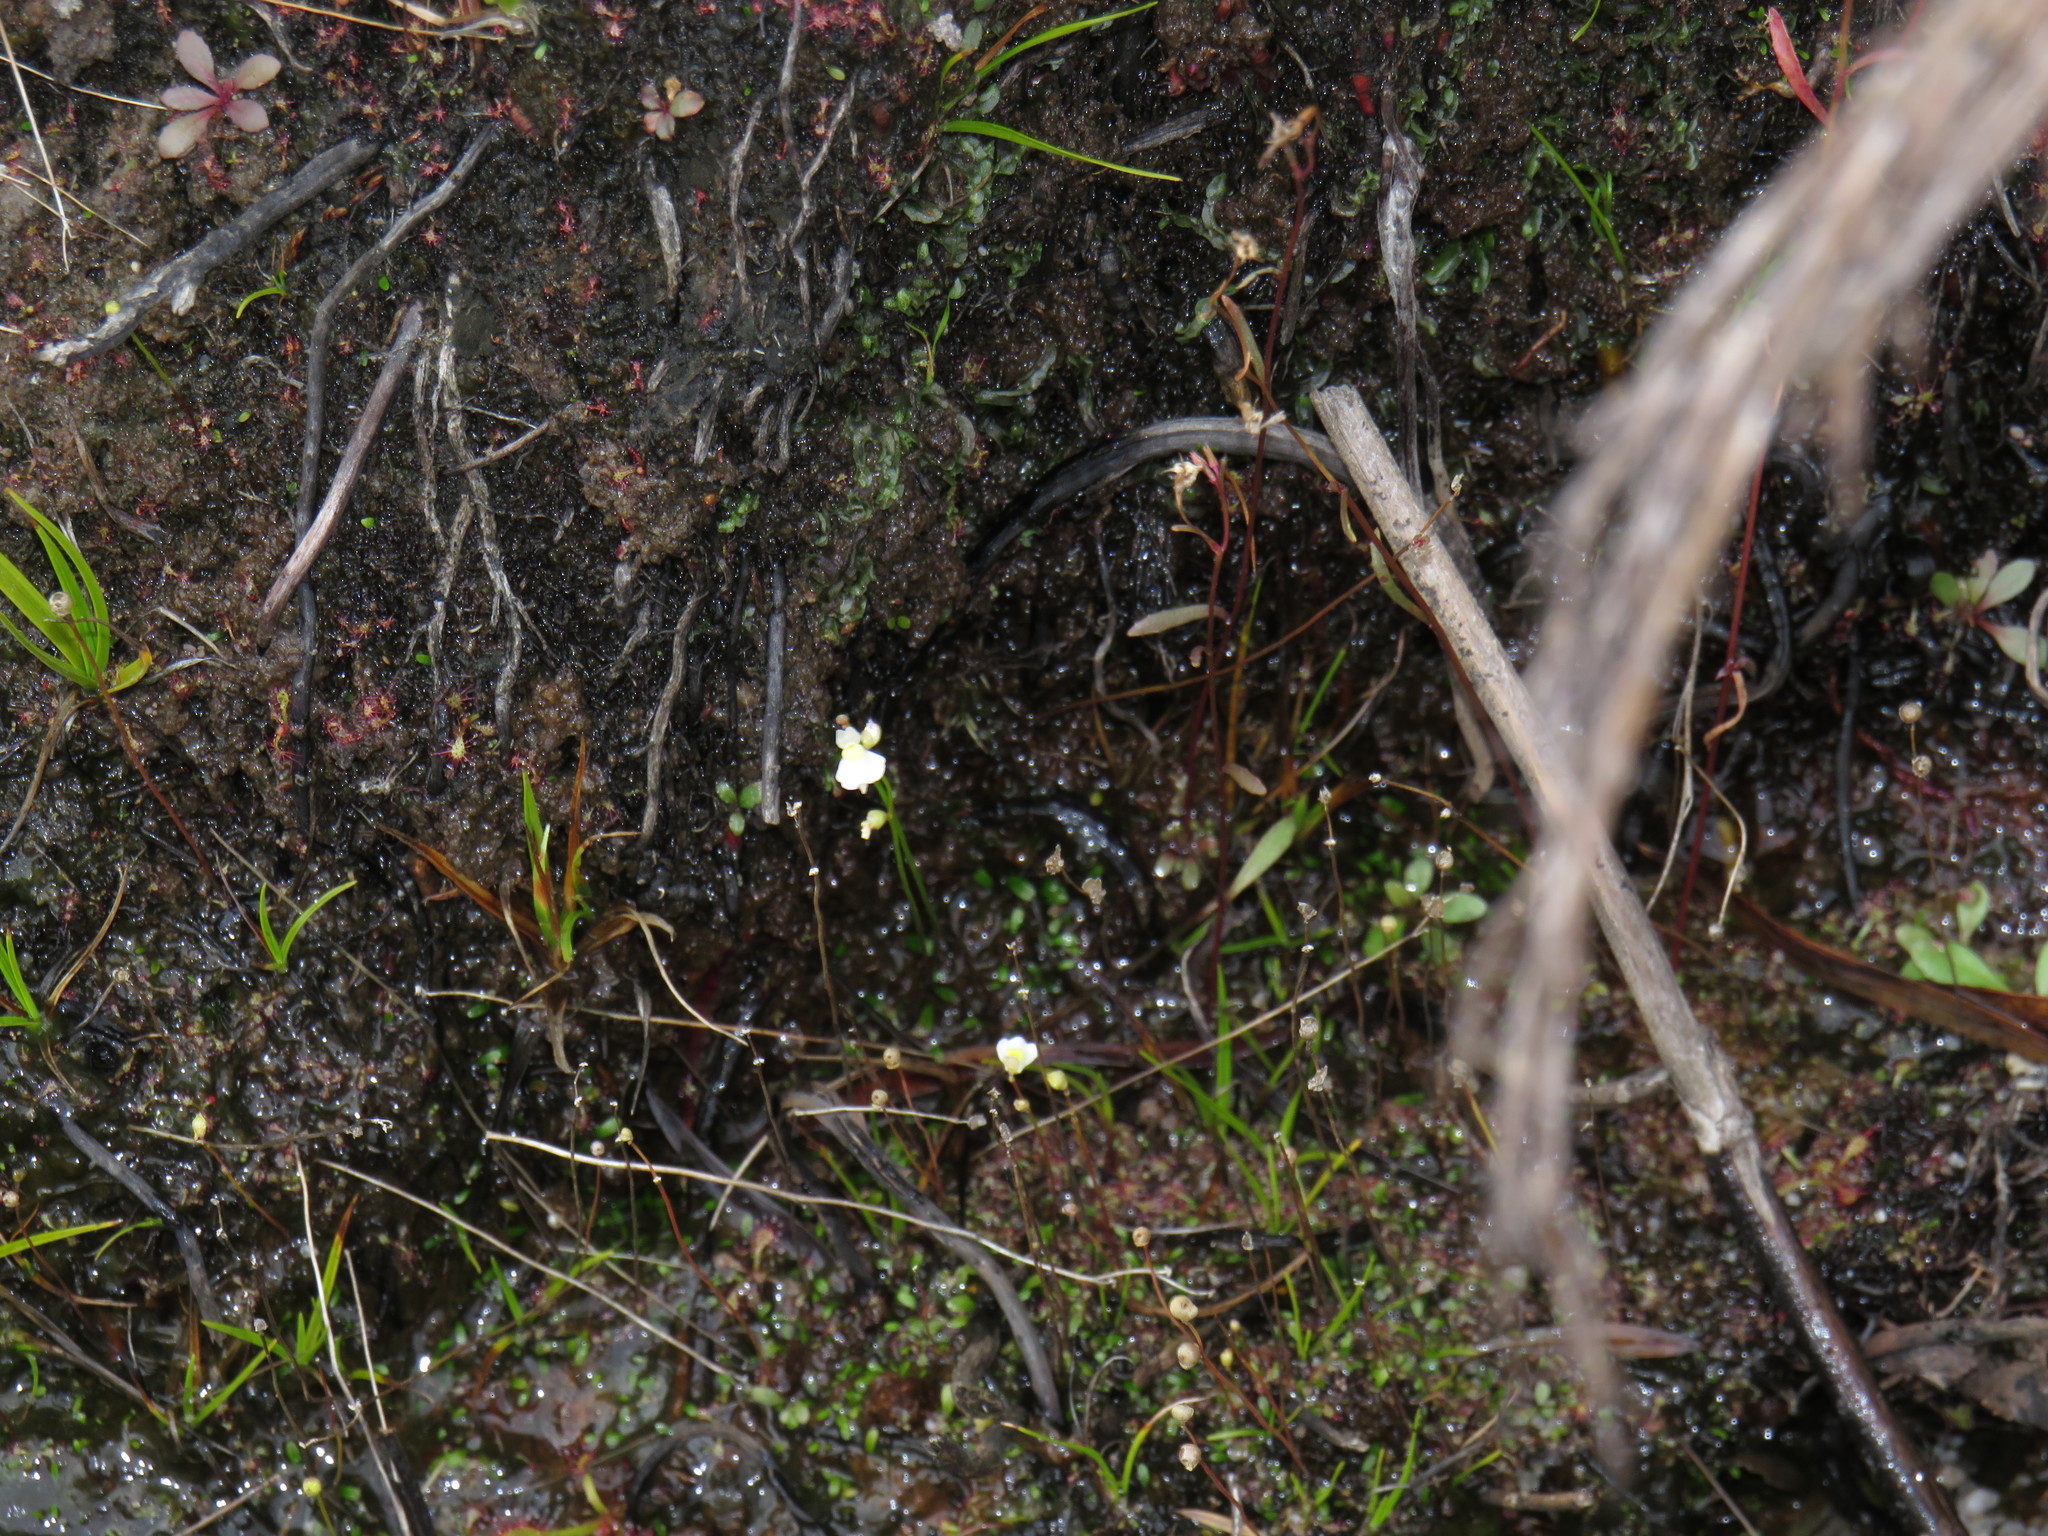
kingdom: Plantae
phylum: Tracheophyta
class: Magnoliopsida
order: Lamiales
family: Lentibulariaceae
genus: Utricularia
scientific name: Utricularia bisquamata
